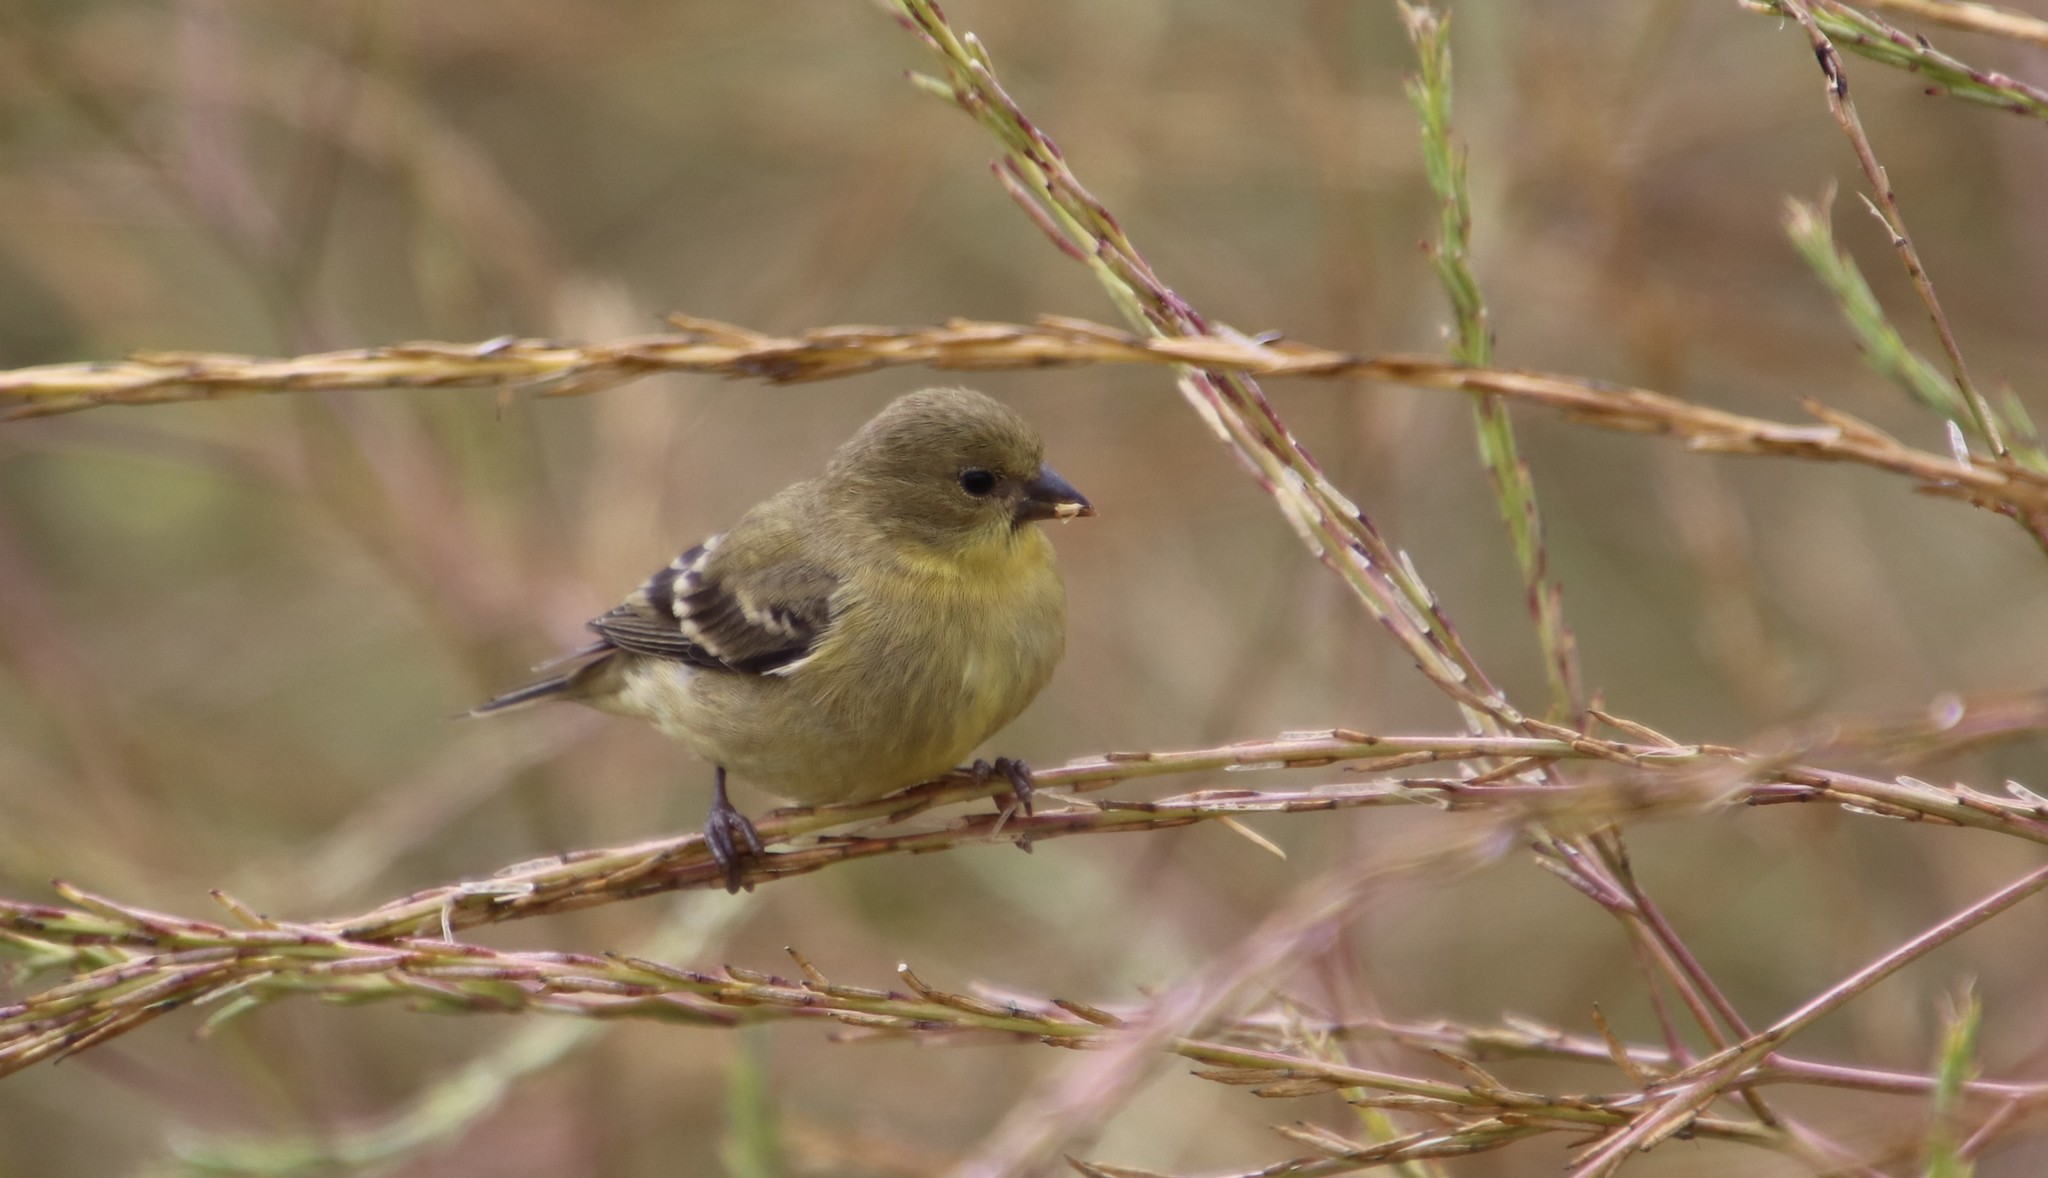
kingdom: Animalia
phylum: Chordata
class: Aves
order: Passeriformes
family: Fringillidae
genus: Spinus
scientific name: Spinus psaltria
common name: Lesser goldfinch
